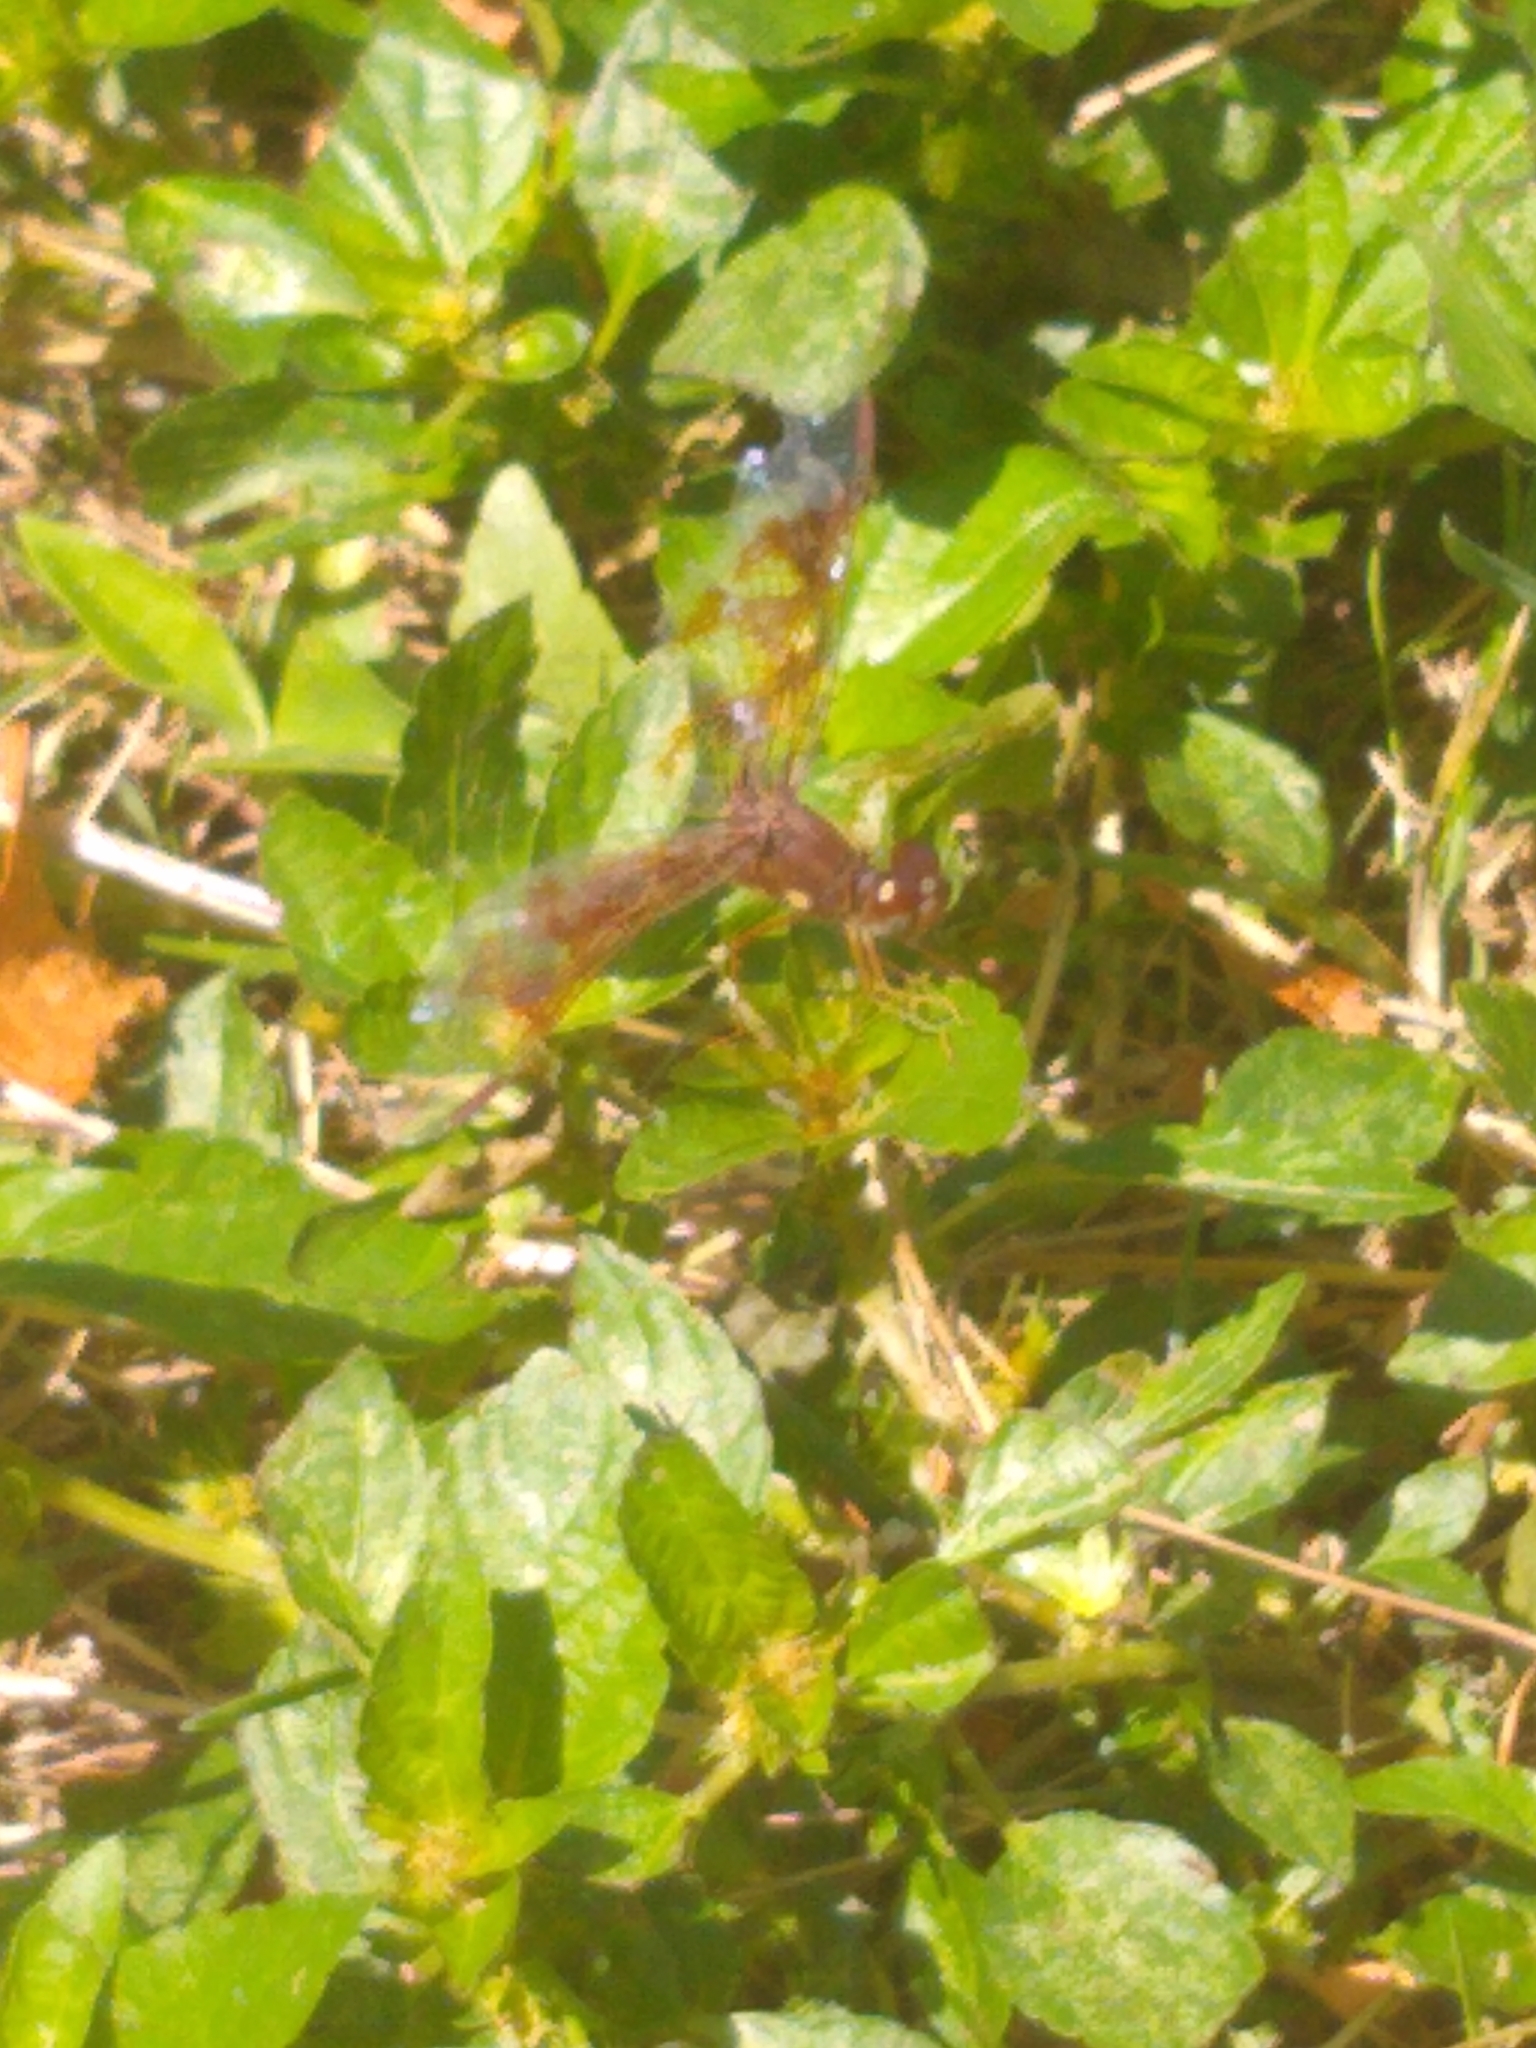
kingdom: Animalia
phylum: Arthropoda
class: Insecta
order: Odonata
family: Libellulidae
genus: Perithemis
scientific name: Perithemis tenera
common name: Eastern amberwing
